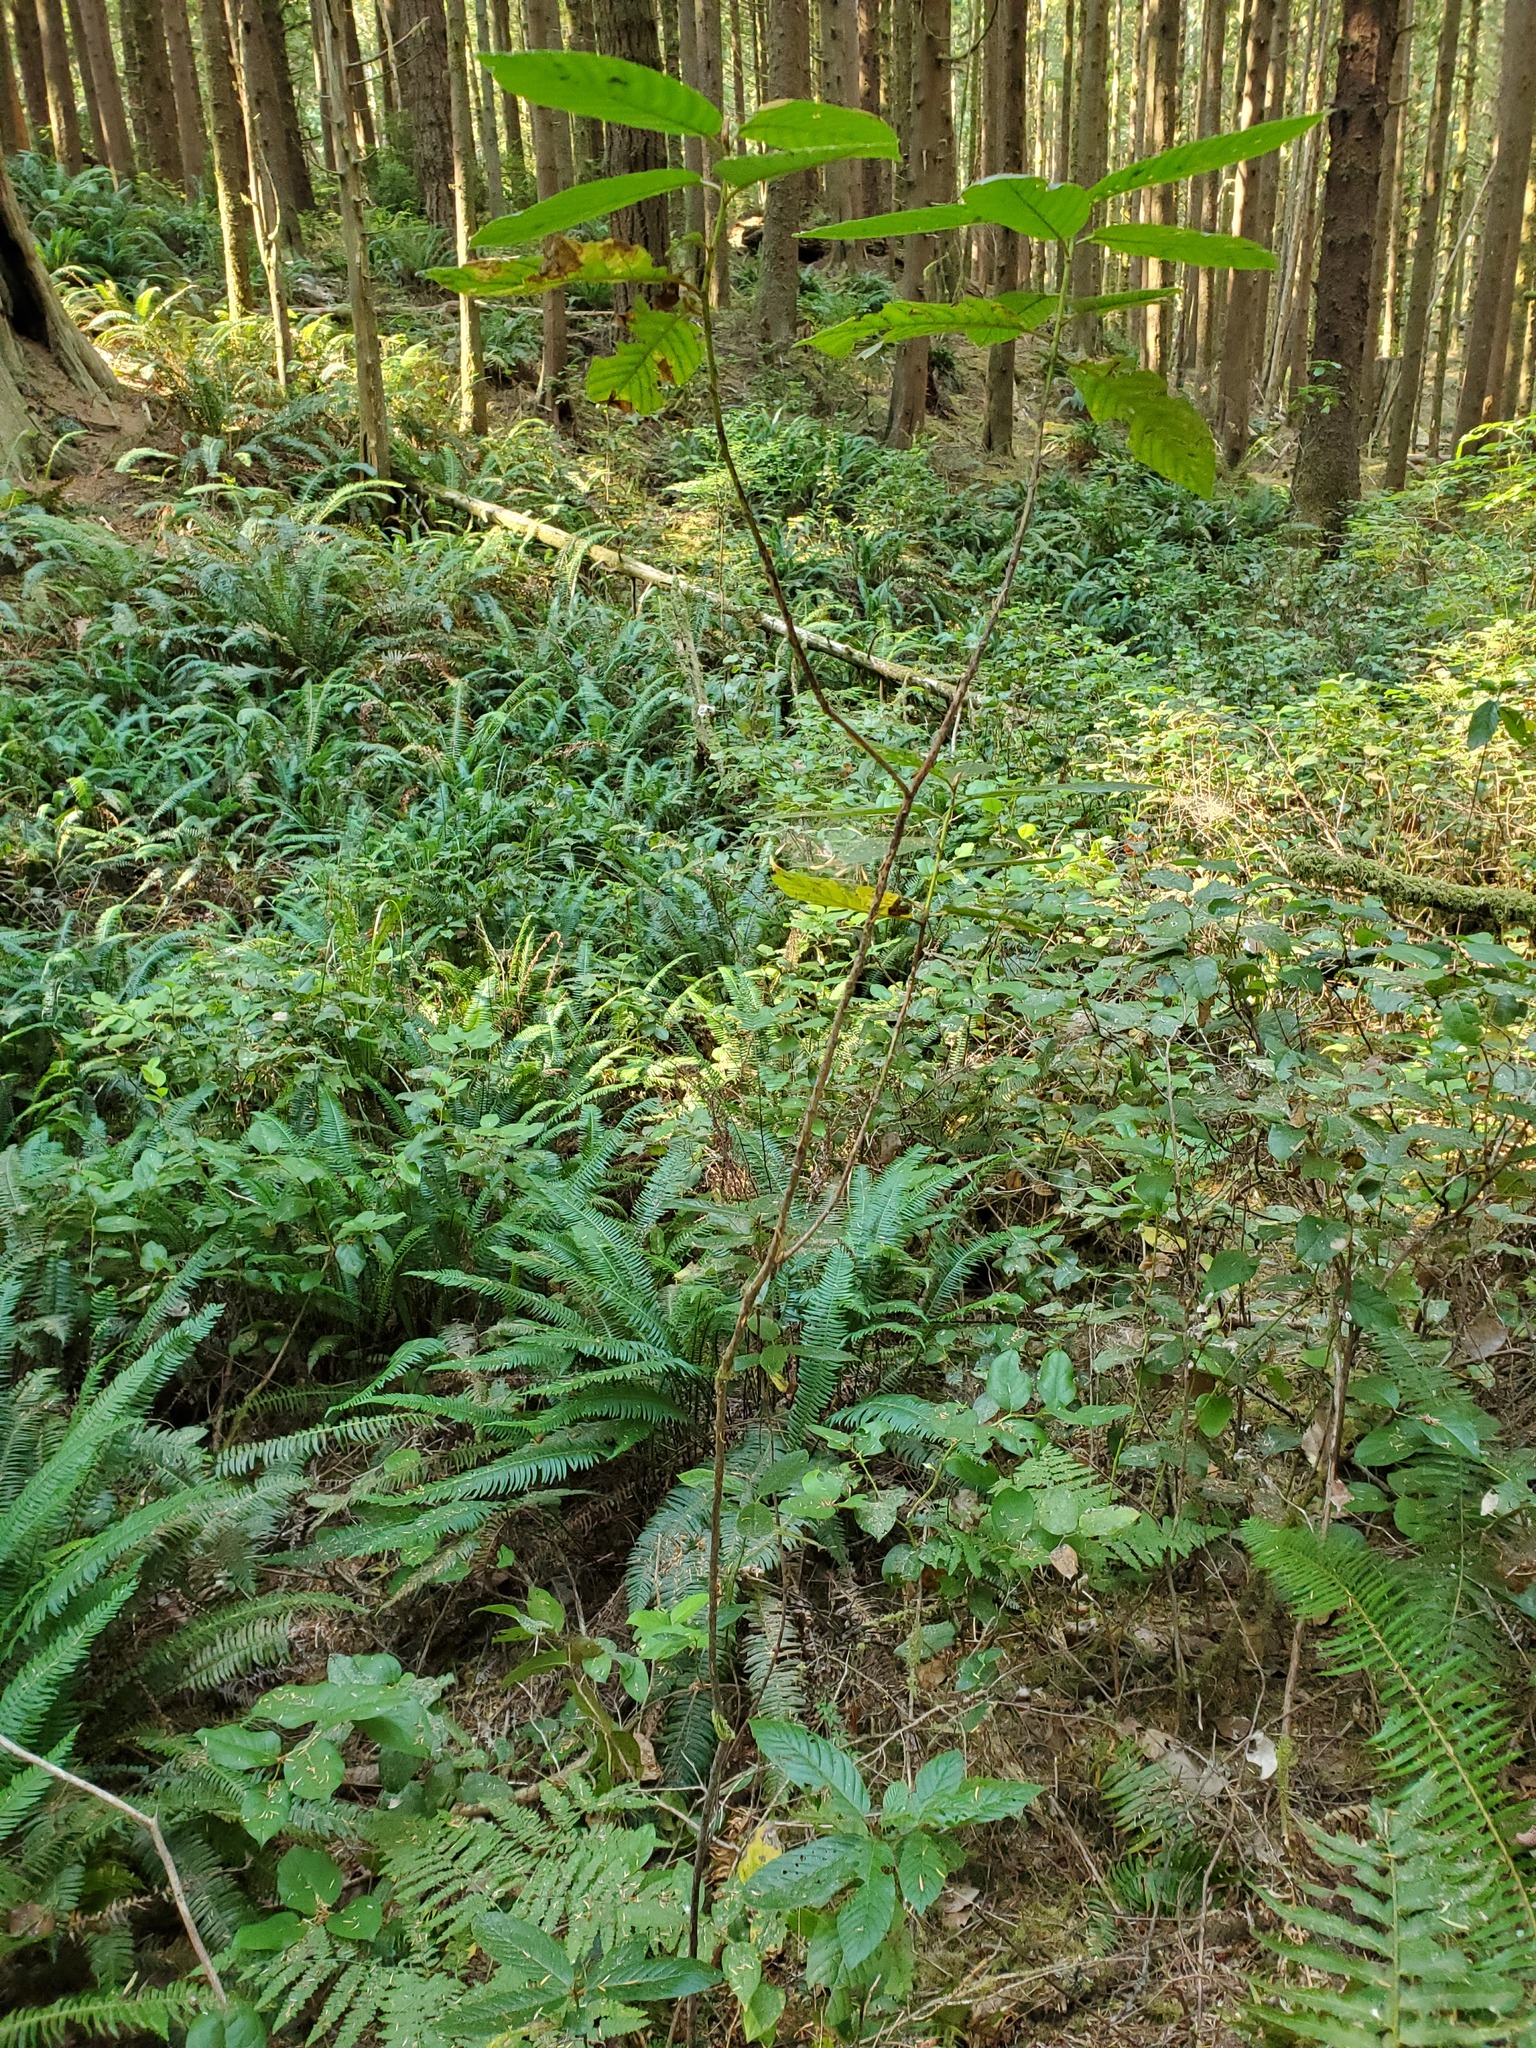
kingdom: Plantae
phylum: Tracheophyta
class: Magnoliopsida
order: Rosales
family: Rhamnaceae
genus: Frangula
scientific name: Frangula purshiana
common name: Cascara buckthorn
